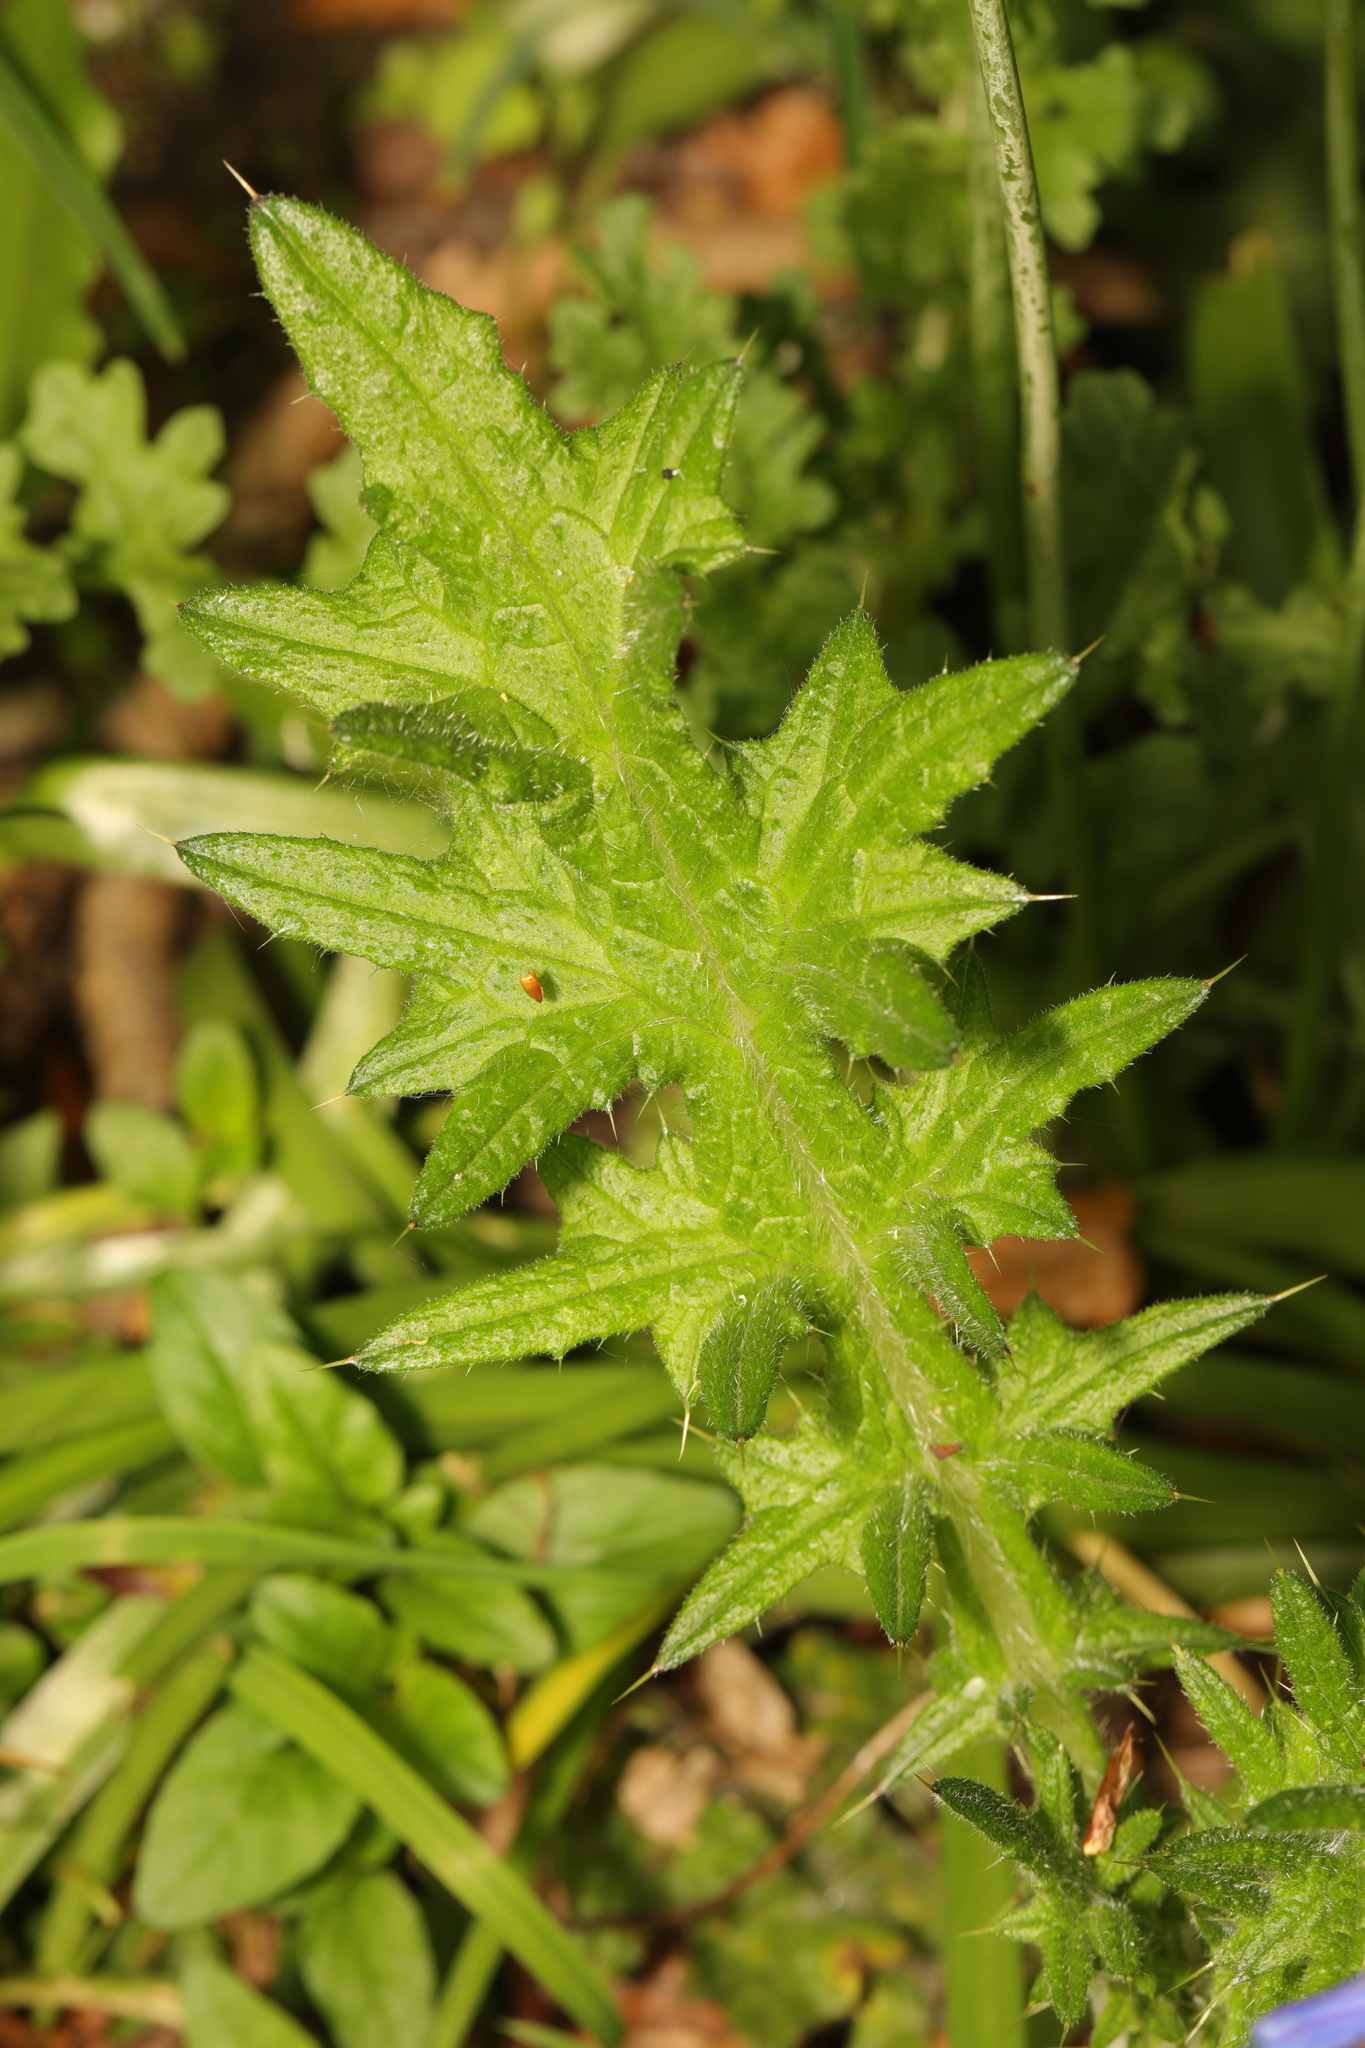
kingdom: Plantae
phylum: Tracheophyta
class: Magnoliopsida
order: Asterales
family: Asteraceae
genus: Cirsium
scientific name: Cirsium vulgare
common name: Bull thistle
